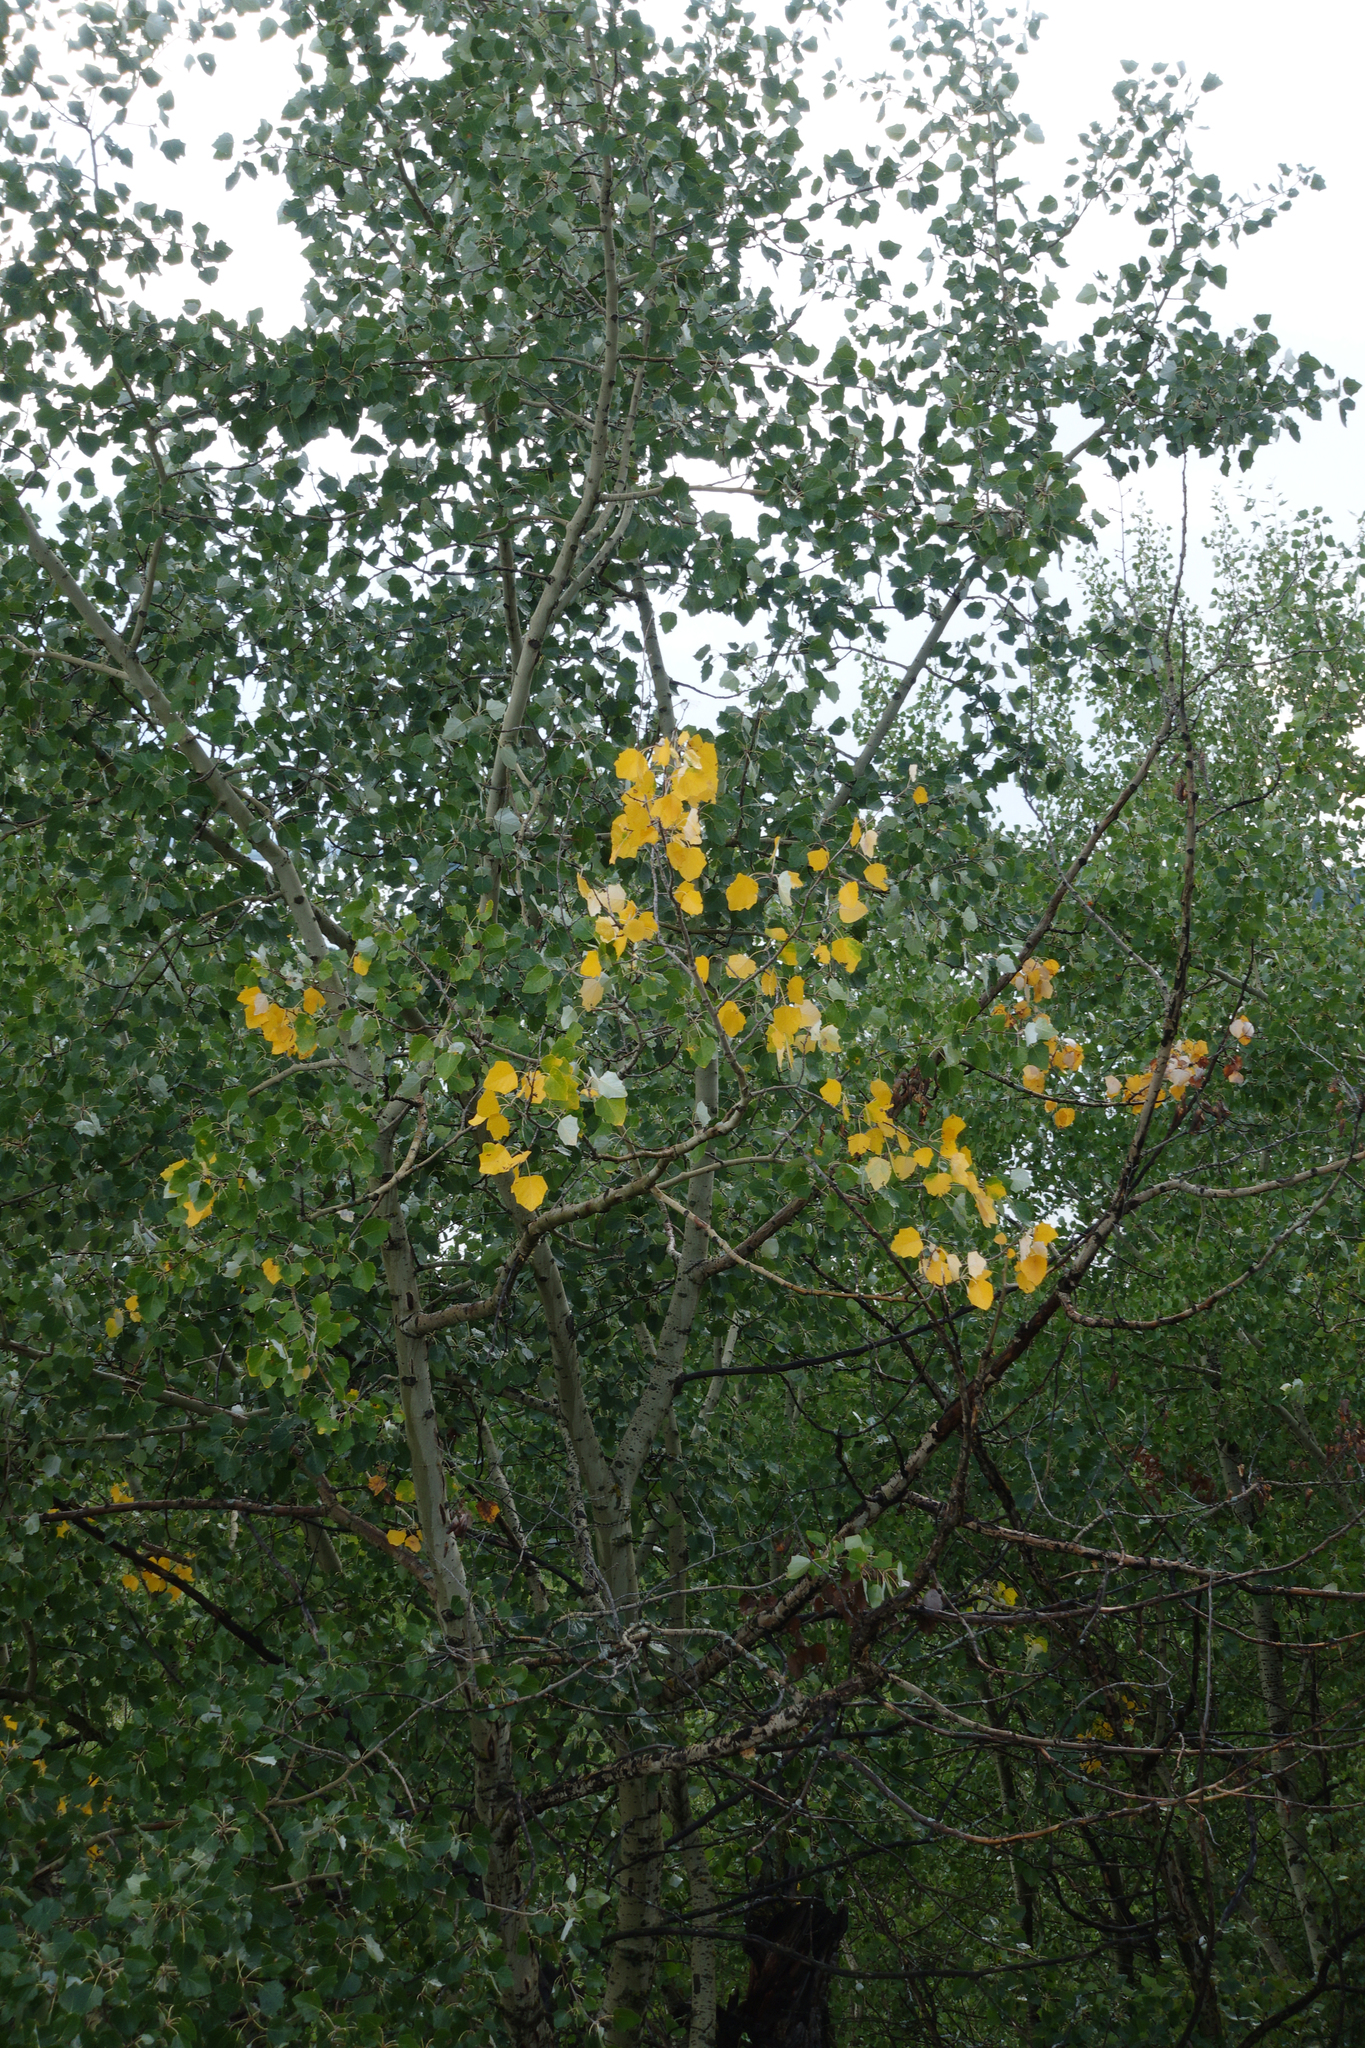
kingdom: Plantae
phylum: Tracheophyta
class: Magnoliopsida
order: Malpighiales
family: Salicaceae
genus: Populus
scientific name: Populus alba
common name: White poplar
